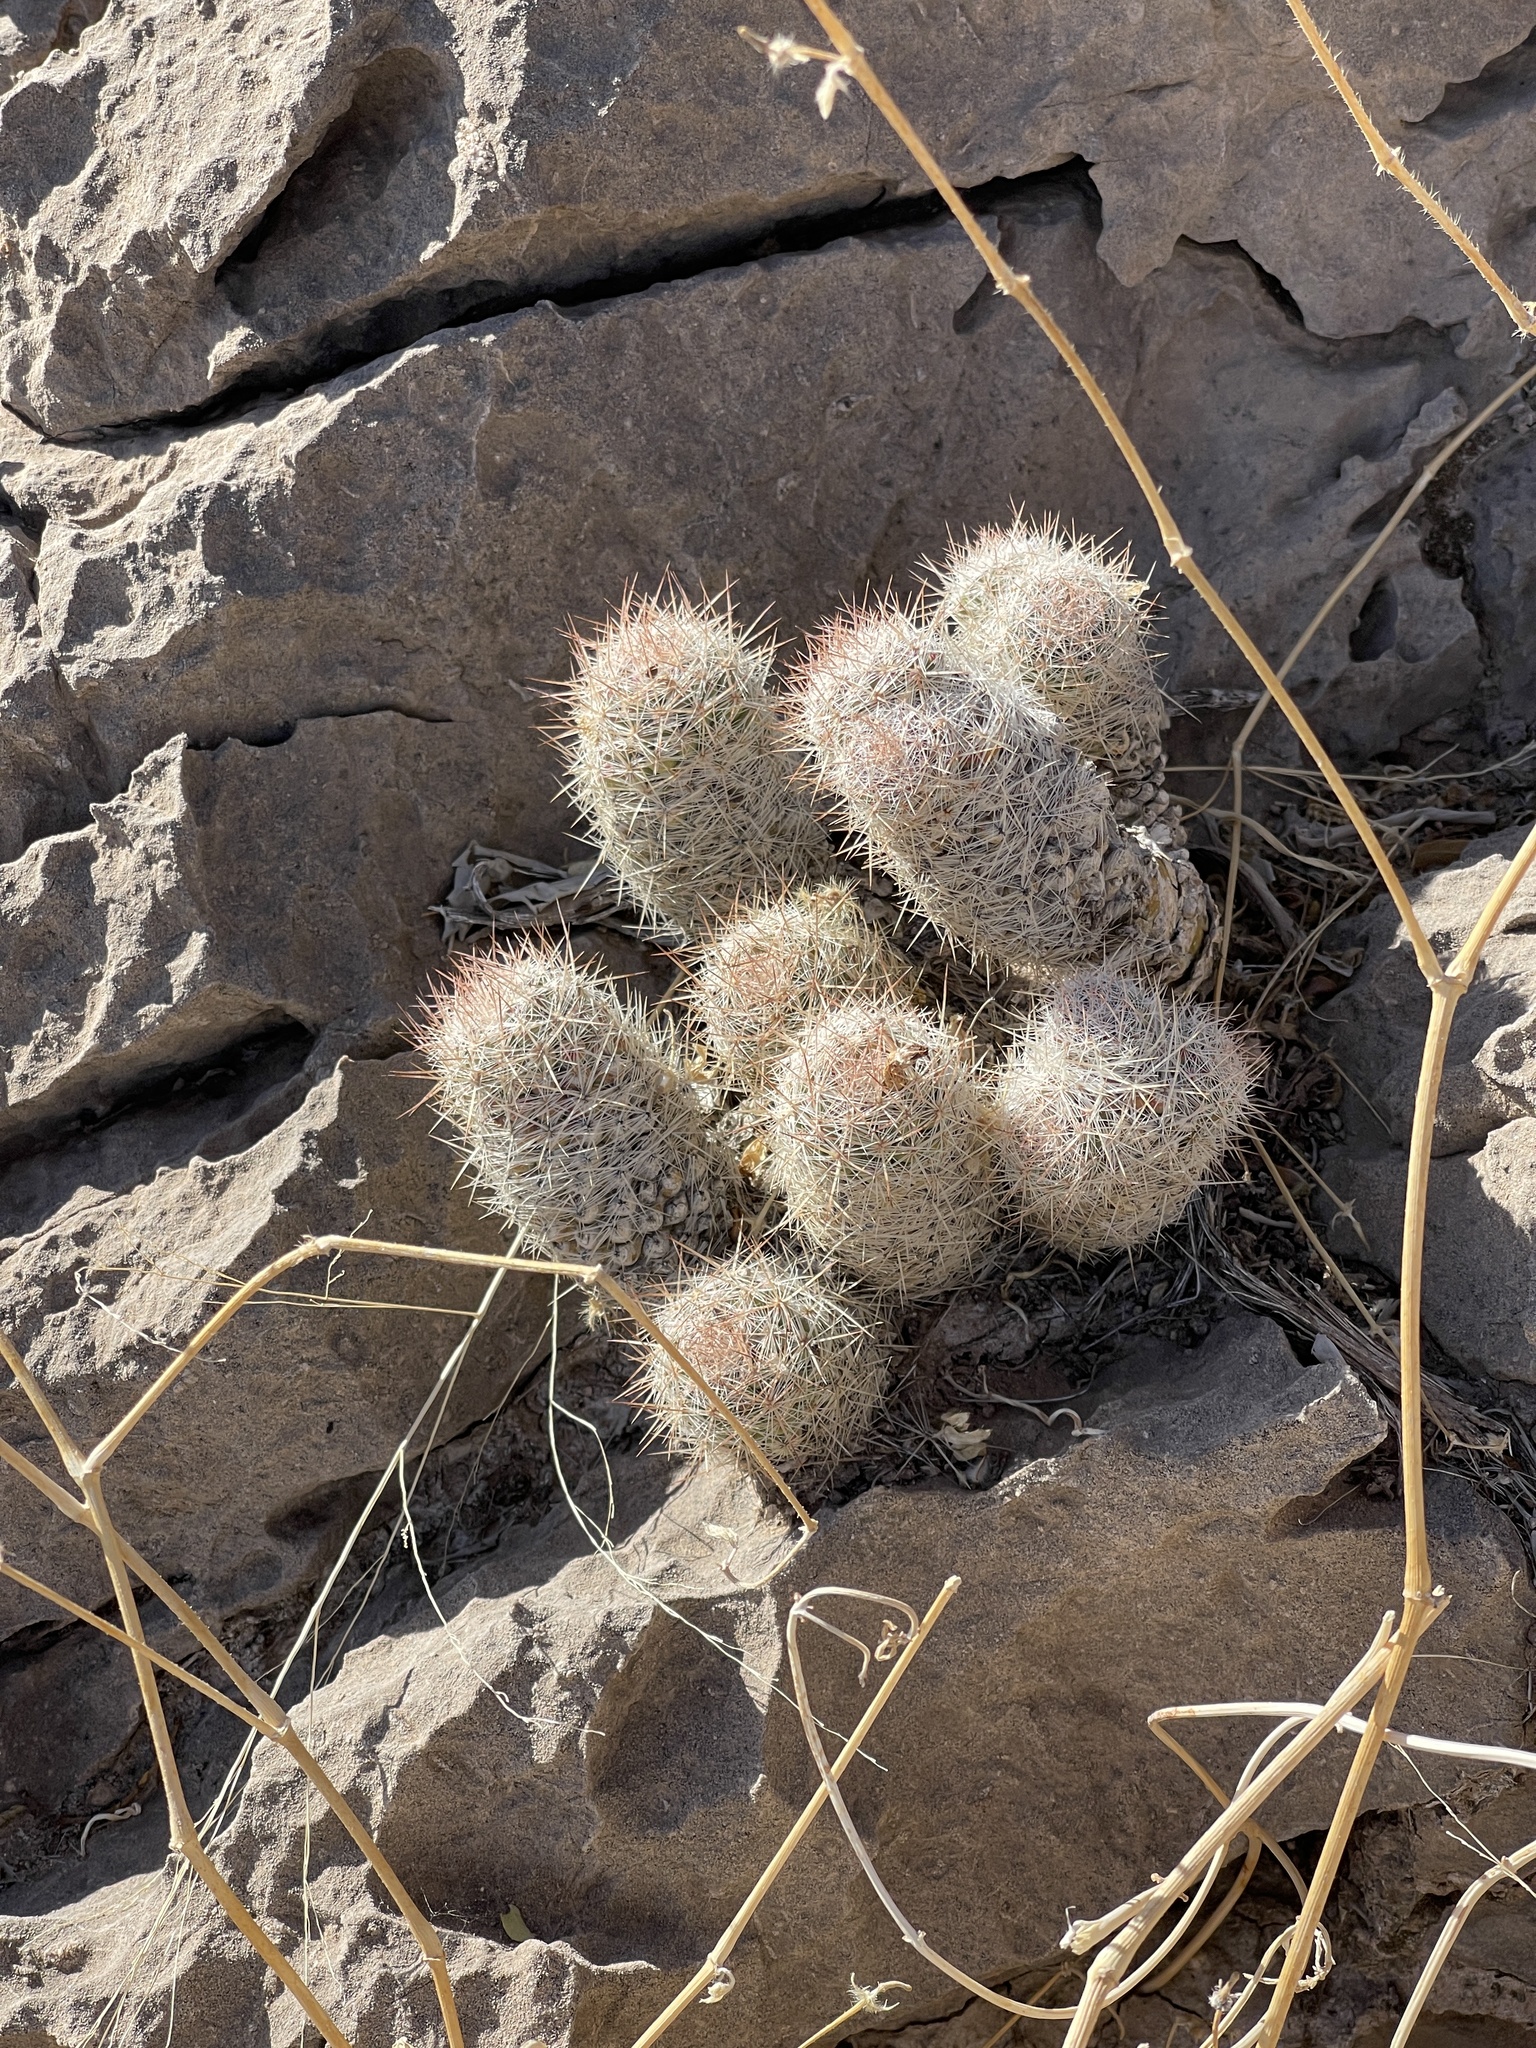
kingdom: Plantae
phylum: Tracheophyta
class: Magnoliopsida
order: Caryophyllales
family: Cactaceae
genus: Pelecyphora
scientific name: Pelecyphora tuberculosa
